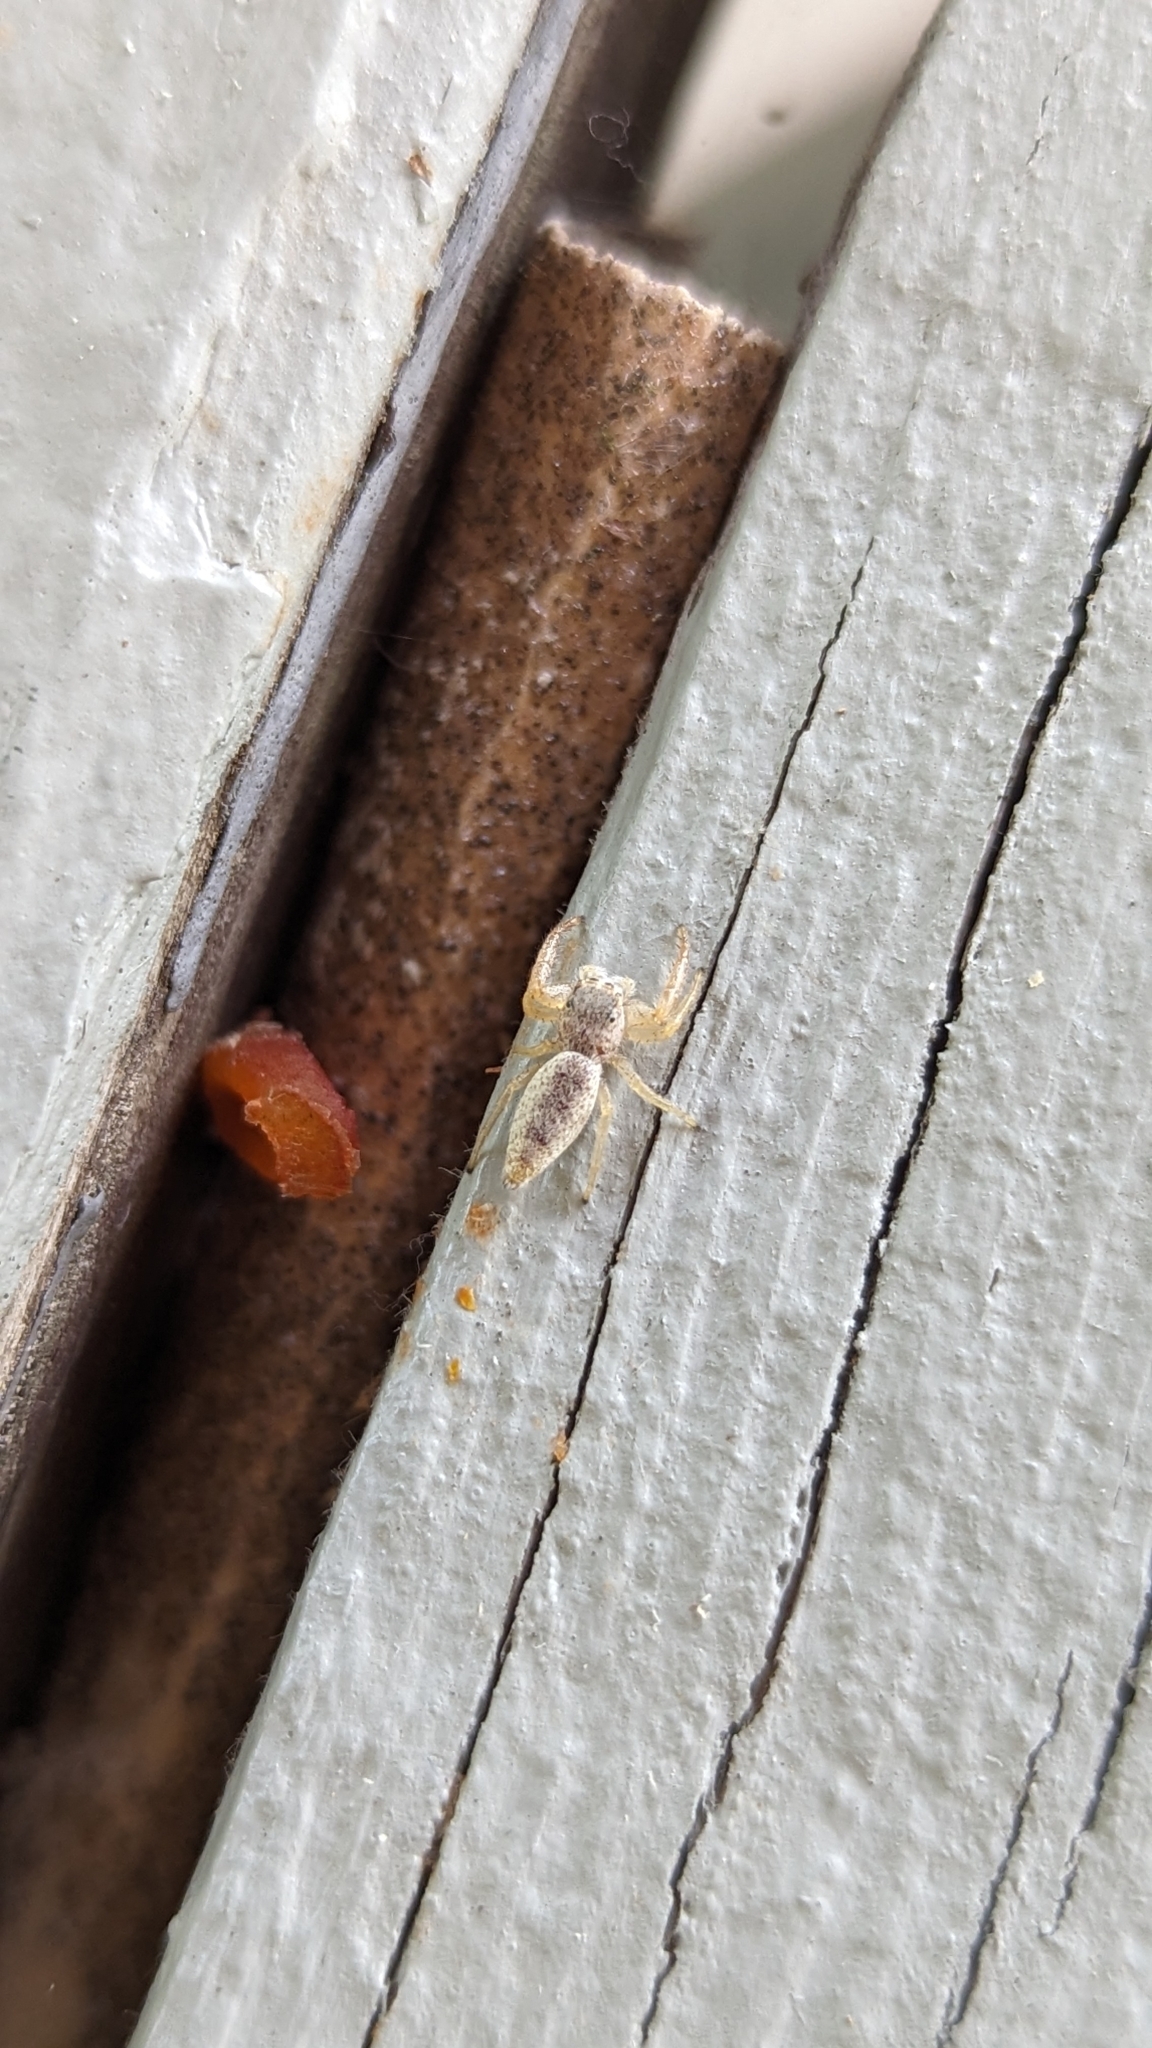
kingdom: Animalia
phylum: Arthropoda
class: Arachnida
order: Araneae
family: Salticidae
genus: Hentzia
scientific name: Hentzia mitrata
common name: White-jawed jumping spider
